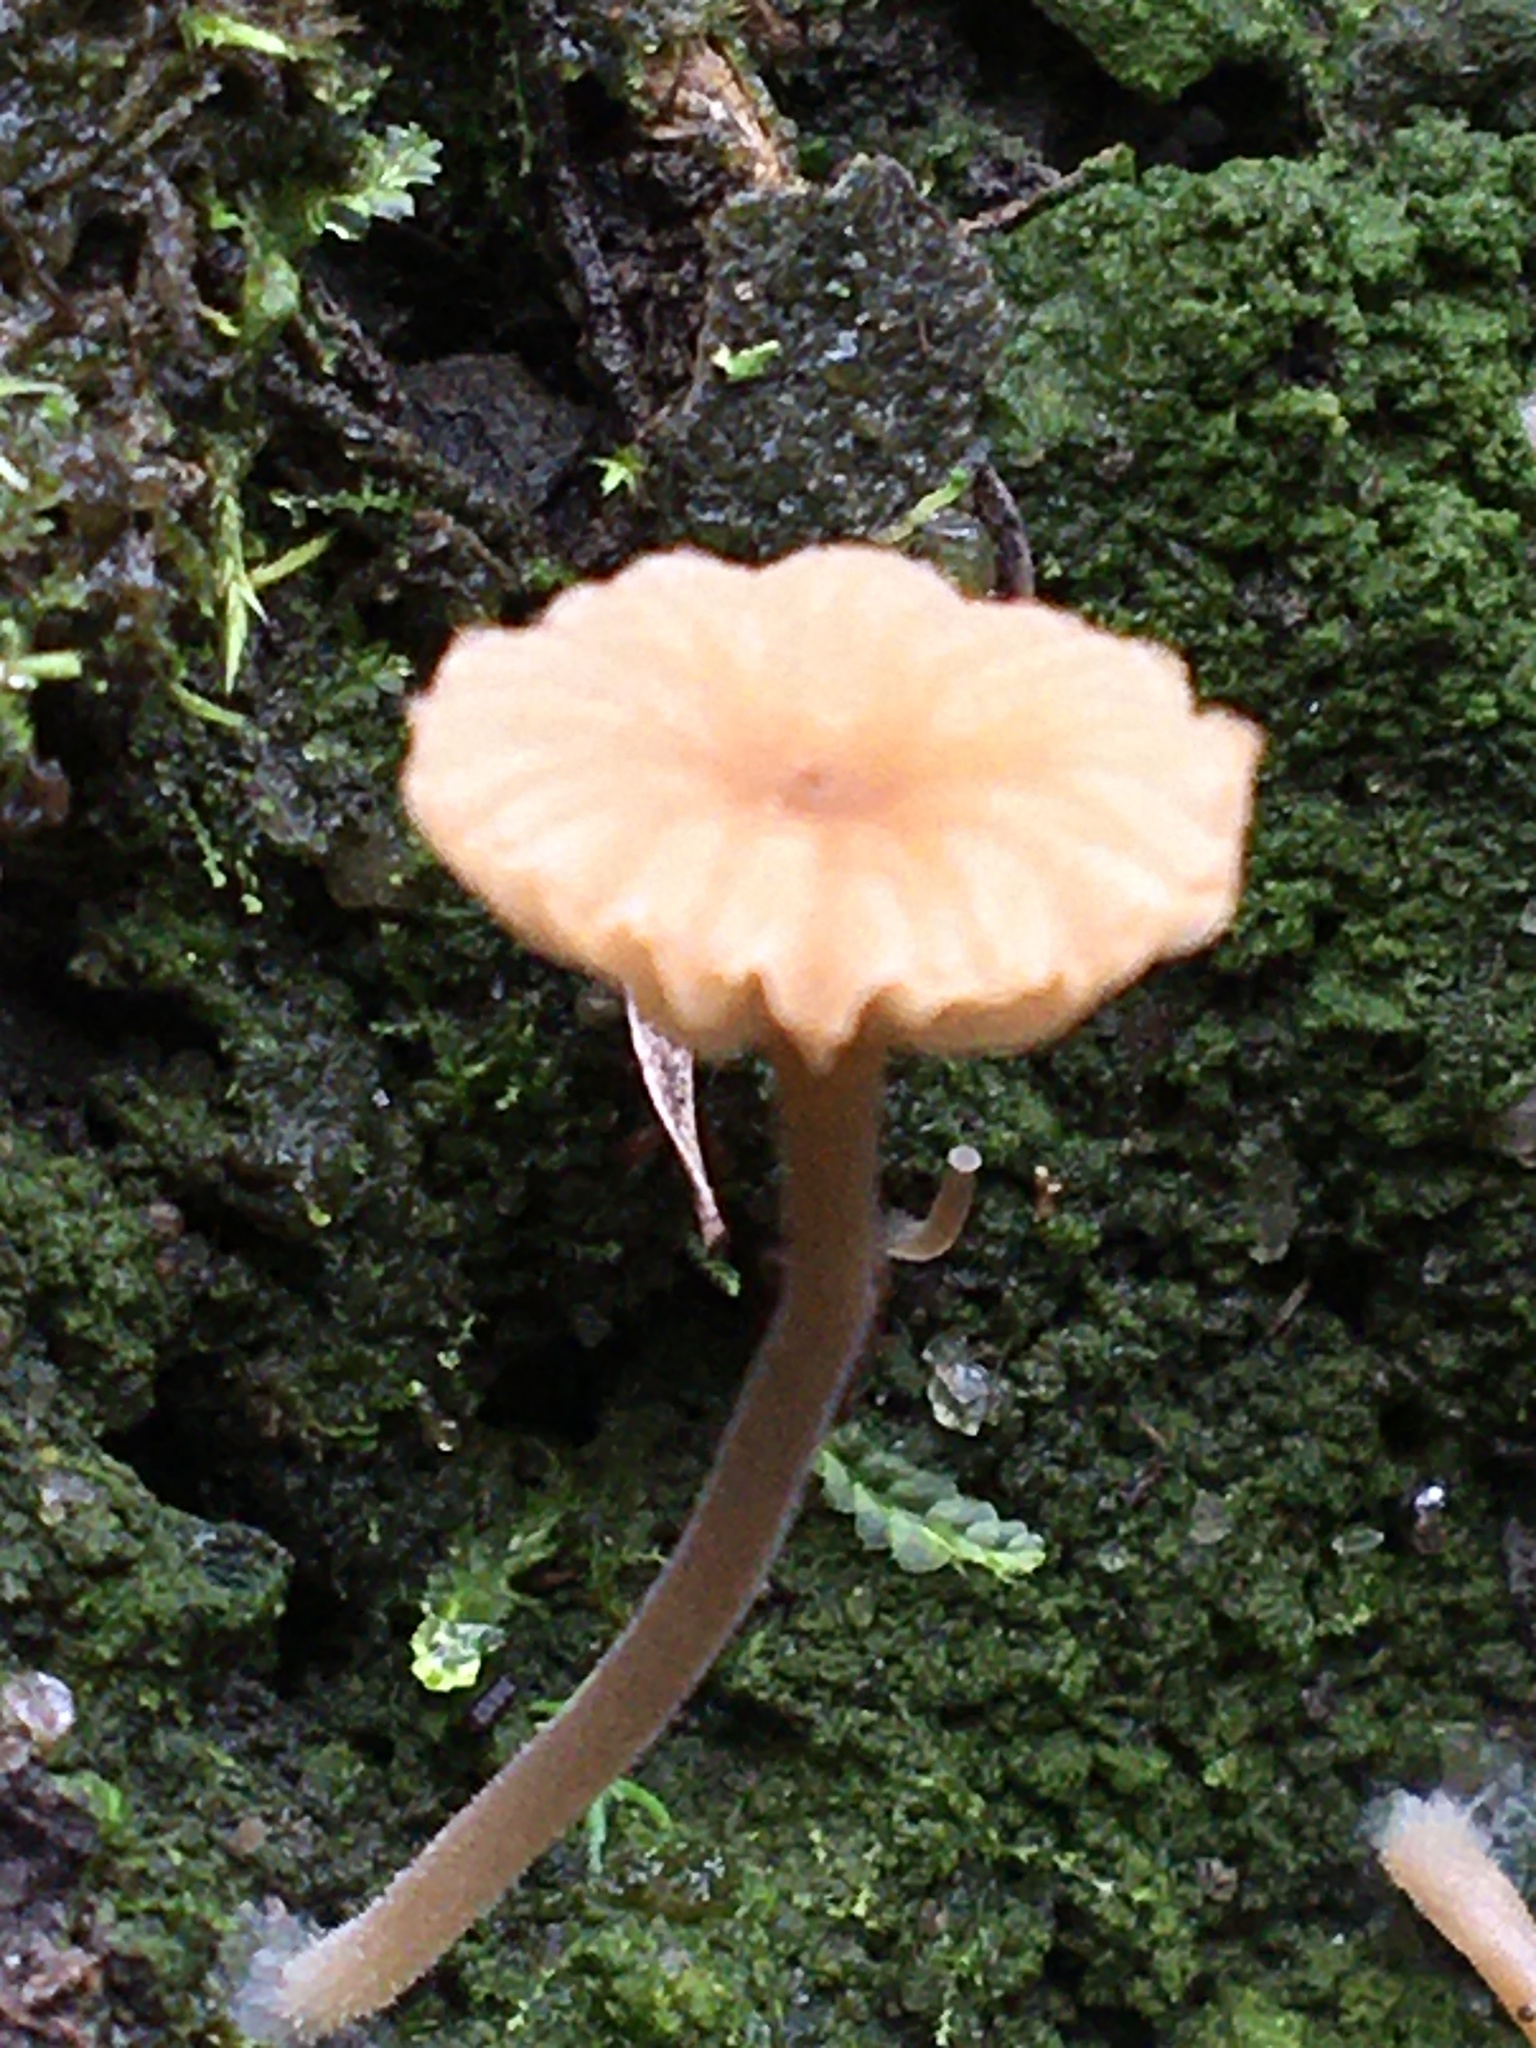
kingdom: Fungi
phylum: Basidiomycota
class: Agaricomycetes
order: Agaricales
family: Hygrophoraceae
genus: Lichenomphalia
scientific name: Lichenomphalia
